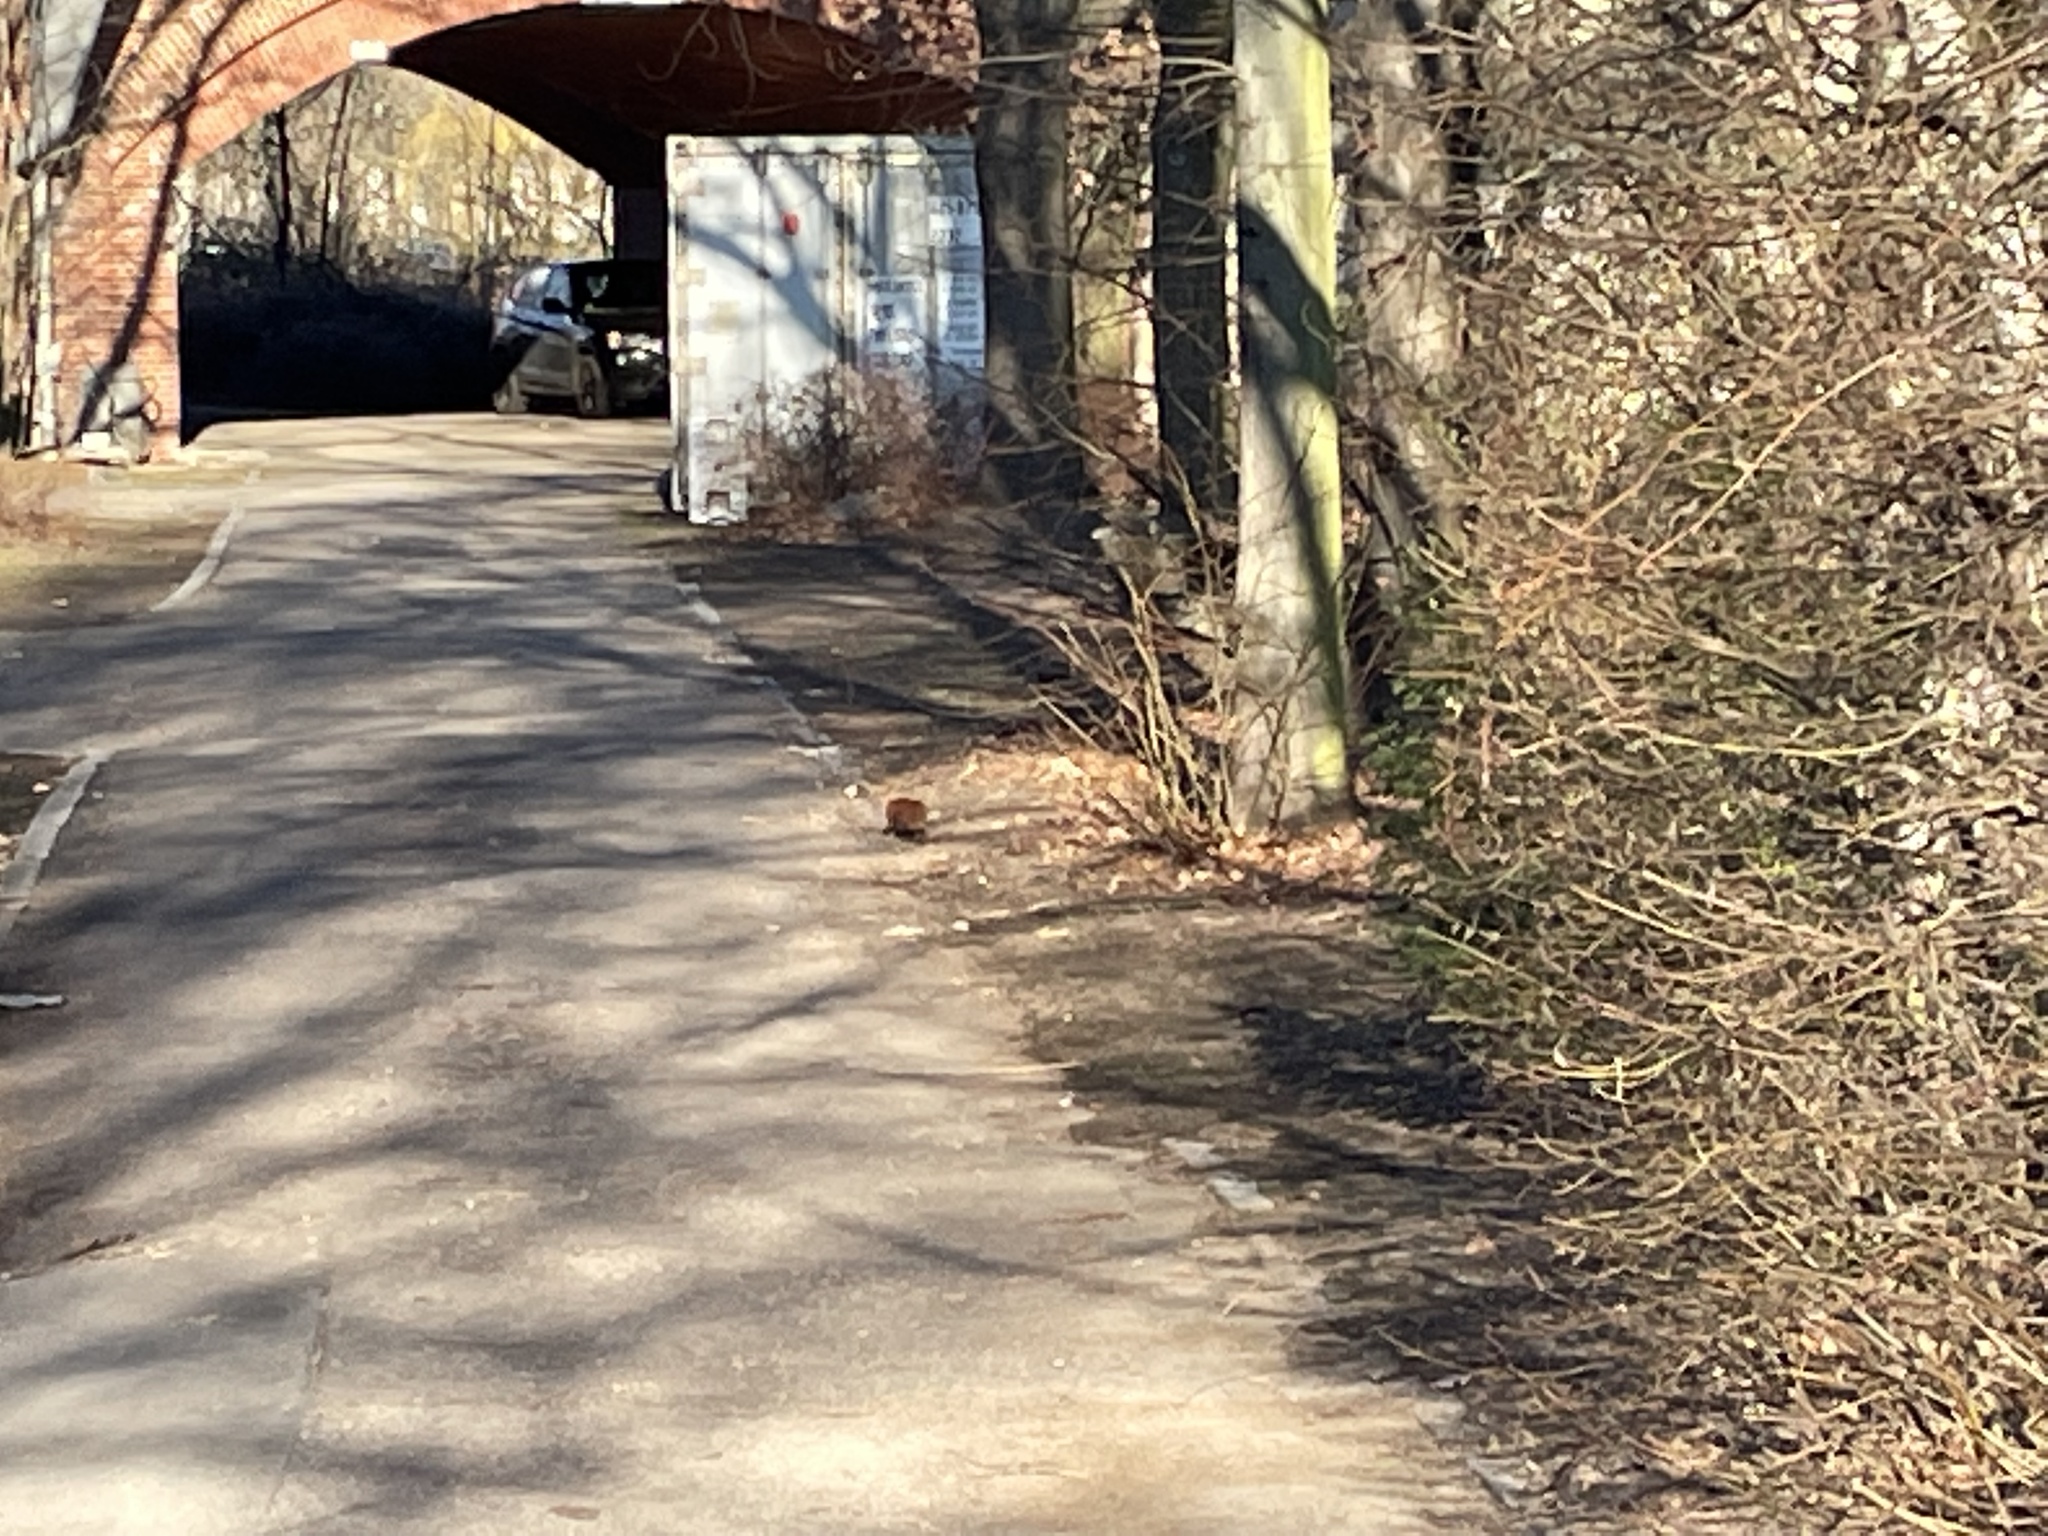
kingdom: Animalia
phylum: Chordata
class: Mammalia
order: Rodentia
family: Sciuridae
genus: Sciurus
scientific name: Sciurus vulgaris
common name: Eurasian red squirrel
